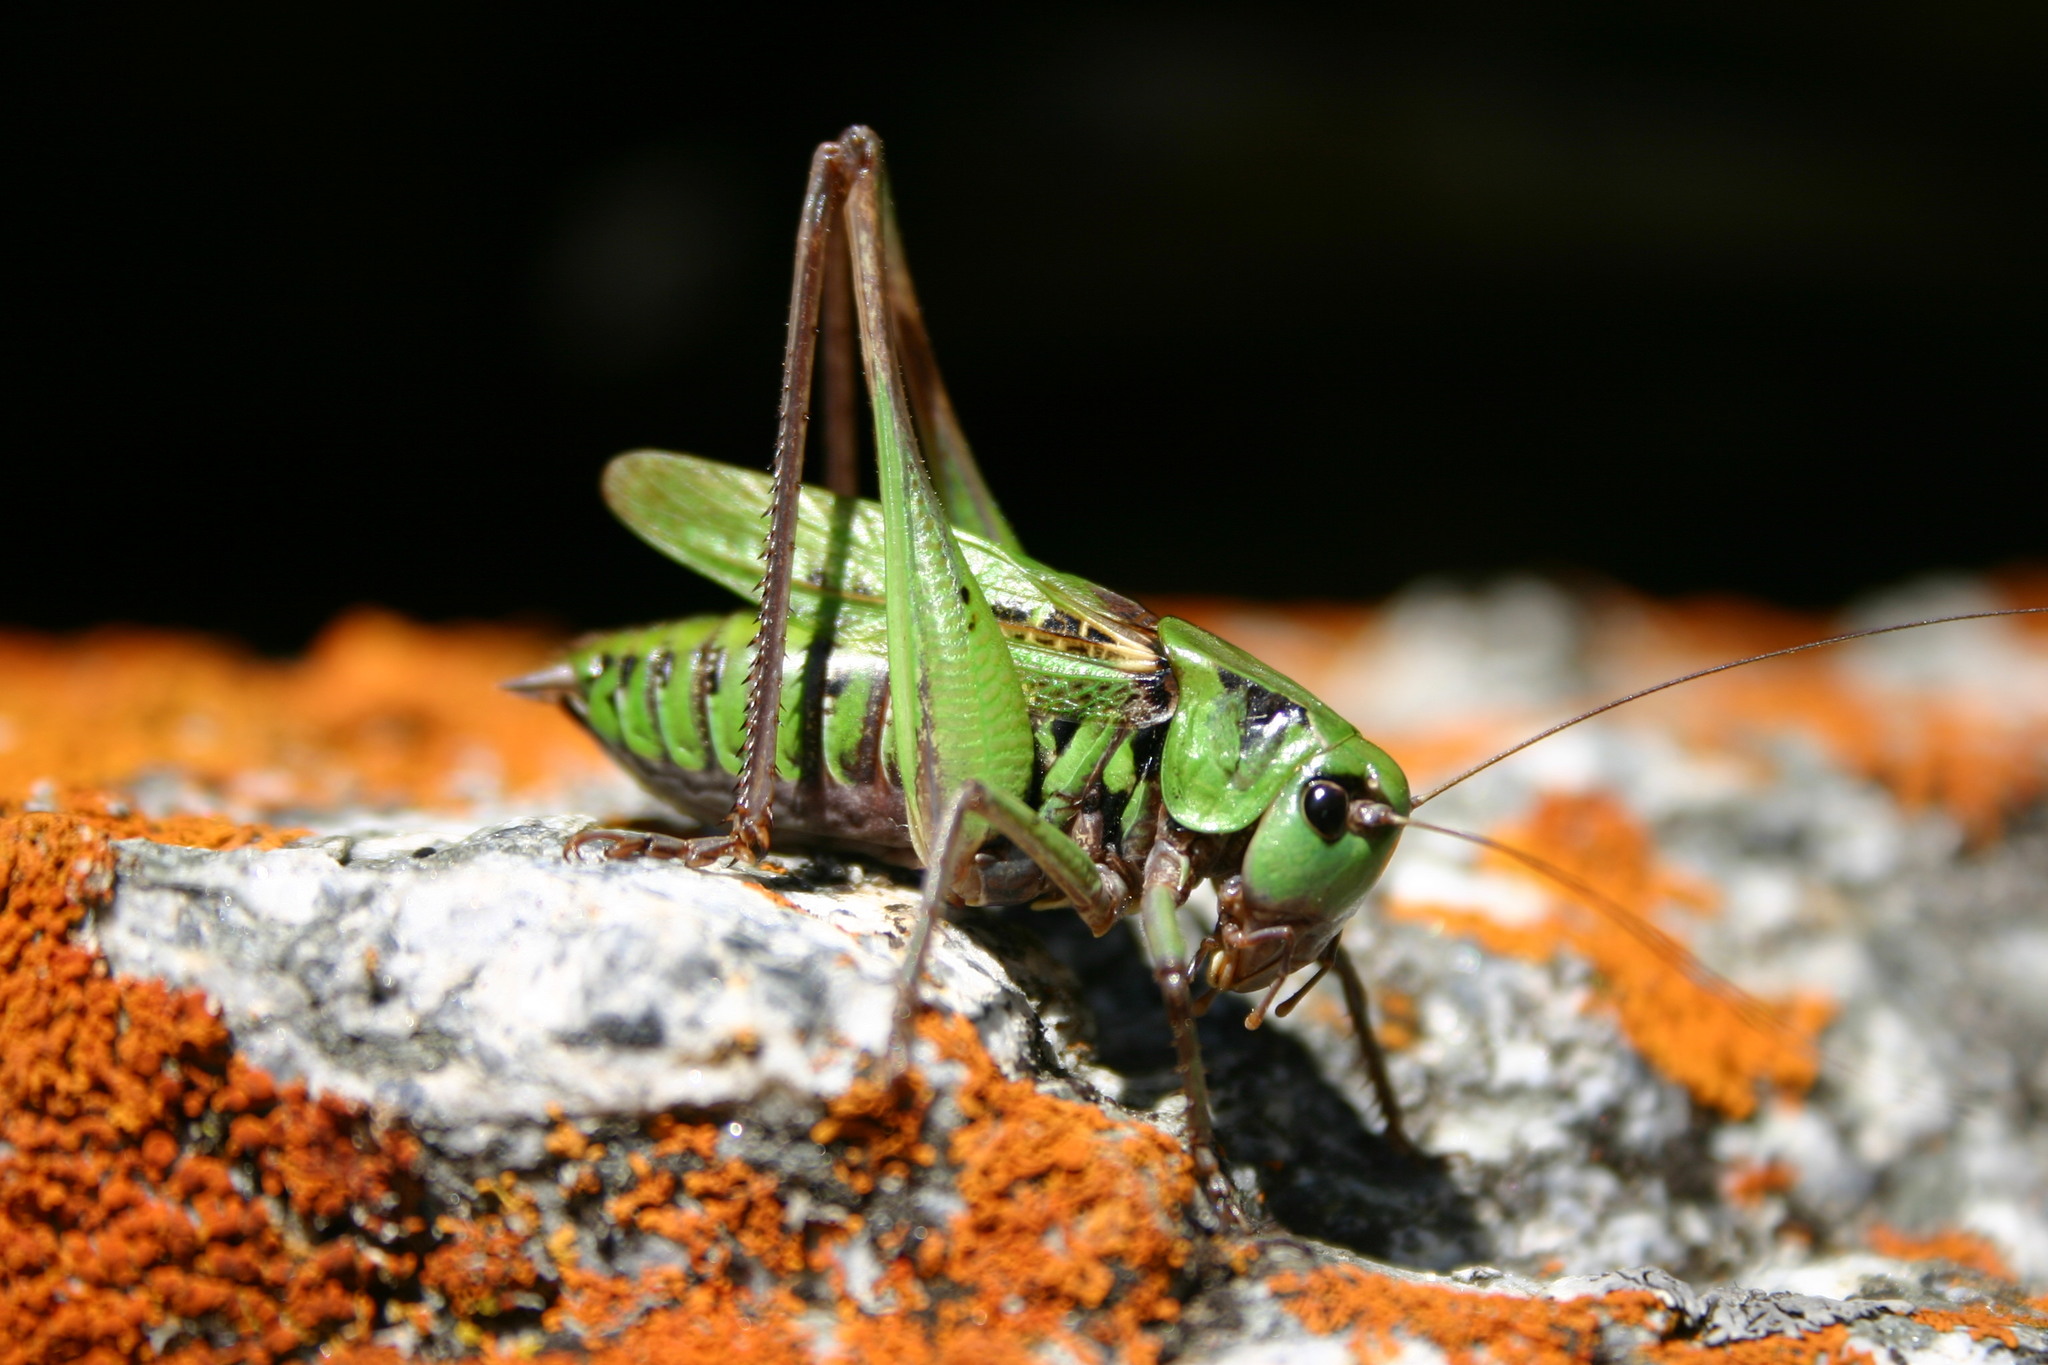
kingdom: Animalia
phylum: Arthropoda
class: Insecta
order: Orthoptera
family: Tettigoniidae
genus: Decticus
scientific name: Decticus verrucivorus
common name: Wart-biter
